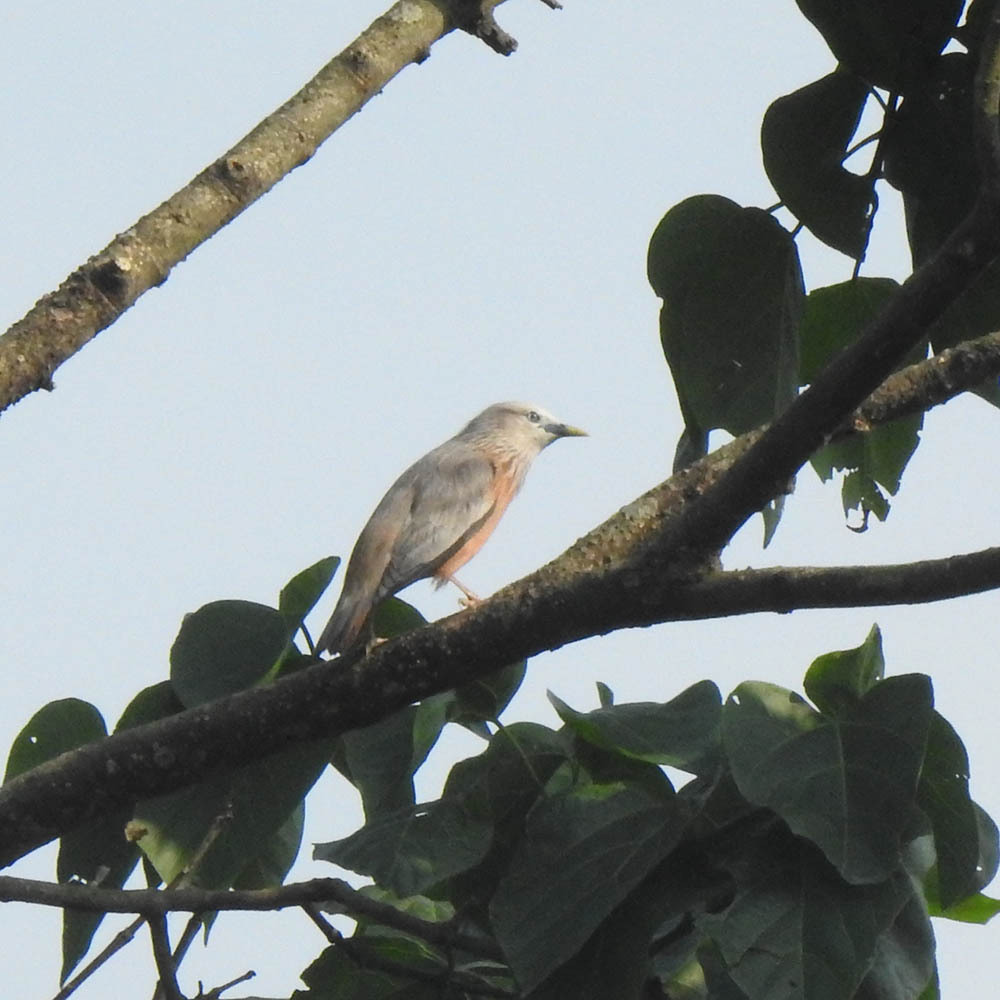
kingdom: Animalia
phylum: Chordata
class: Aves
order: Passeriformes
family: Sturnidae
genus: Sturnia
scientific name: Sturnia malabarica
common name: Chestnut-tailed starling
